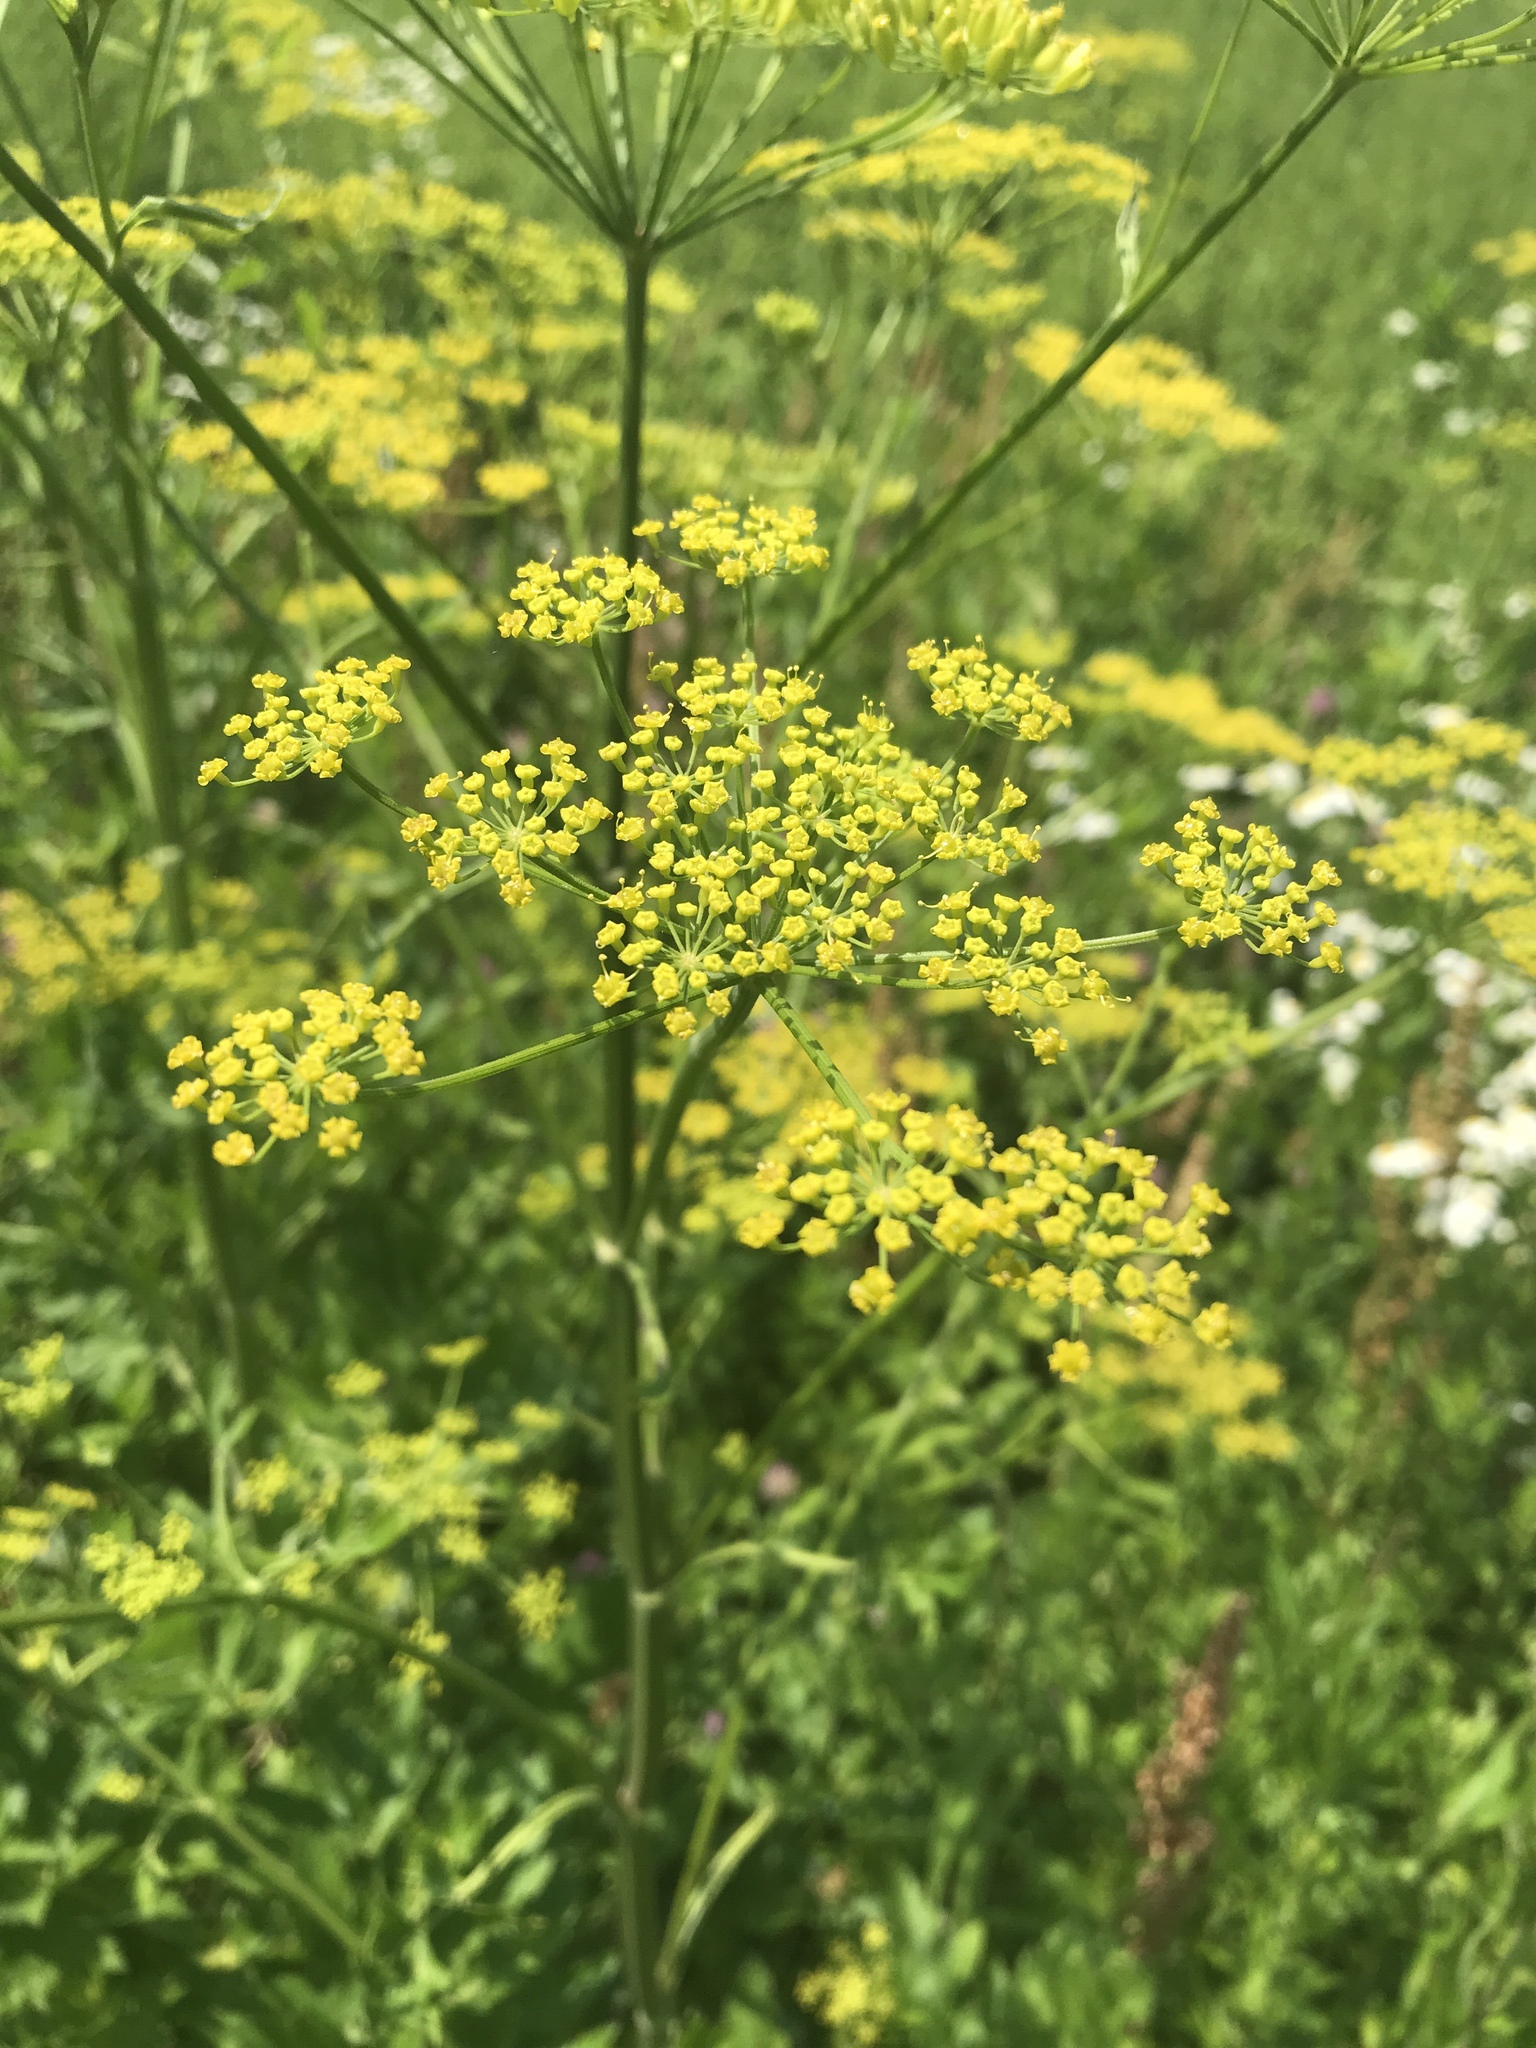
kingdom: Plantae
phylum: Tracheophyta
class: Magnoliopsida
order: Apiales
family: Apiaceae
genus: Pastinaca
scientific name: Pastinaca sativa
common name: Wild parsnip
